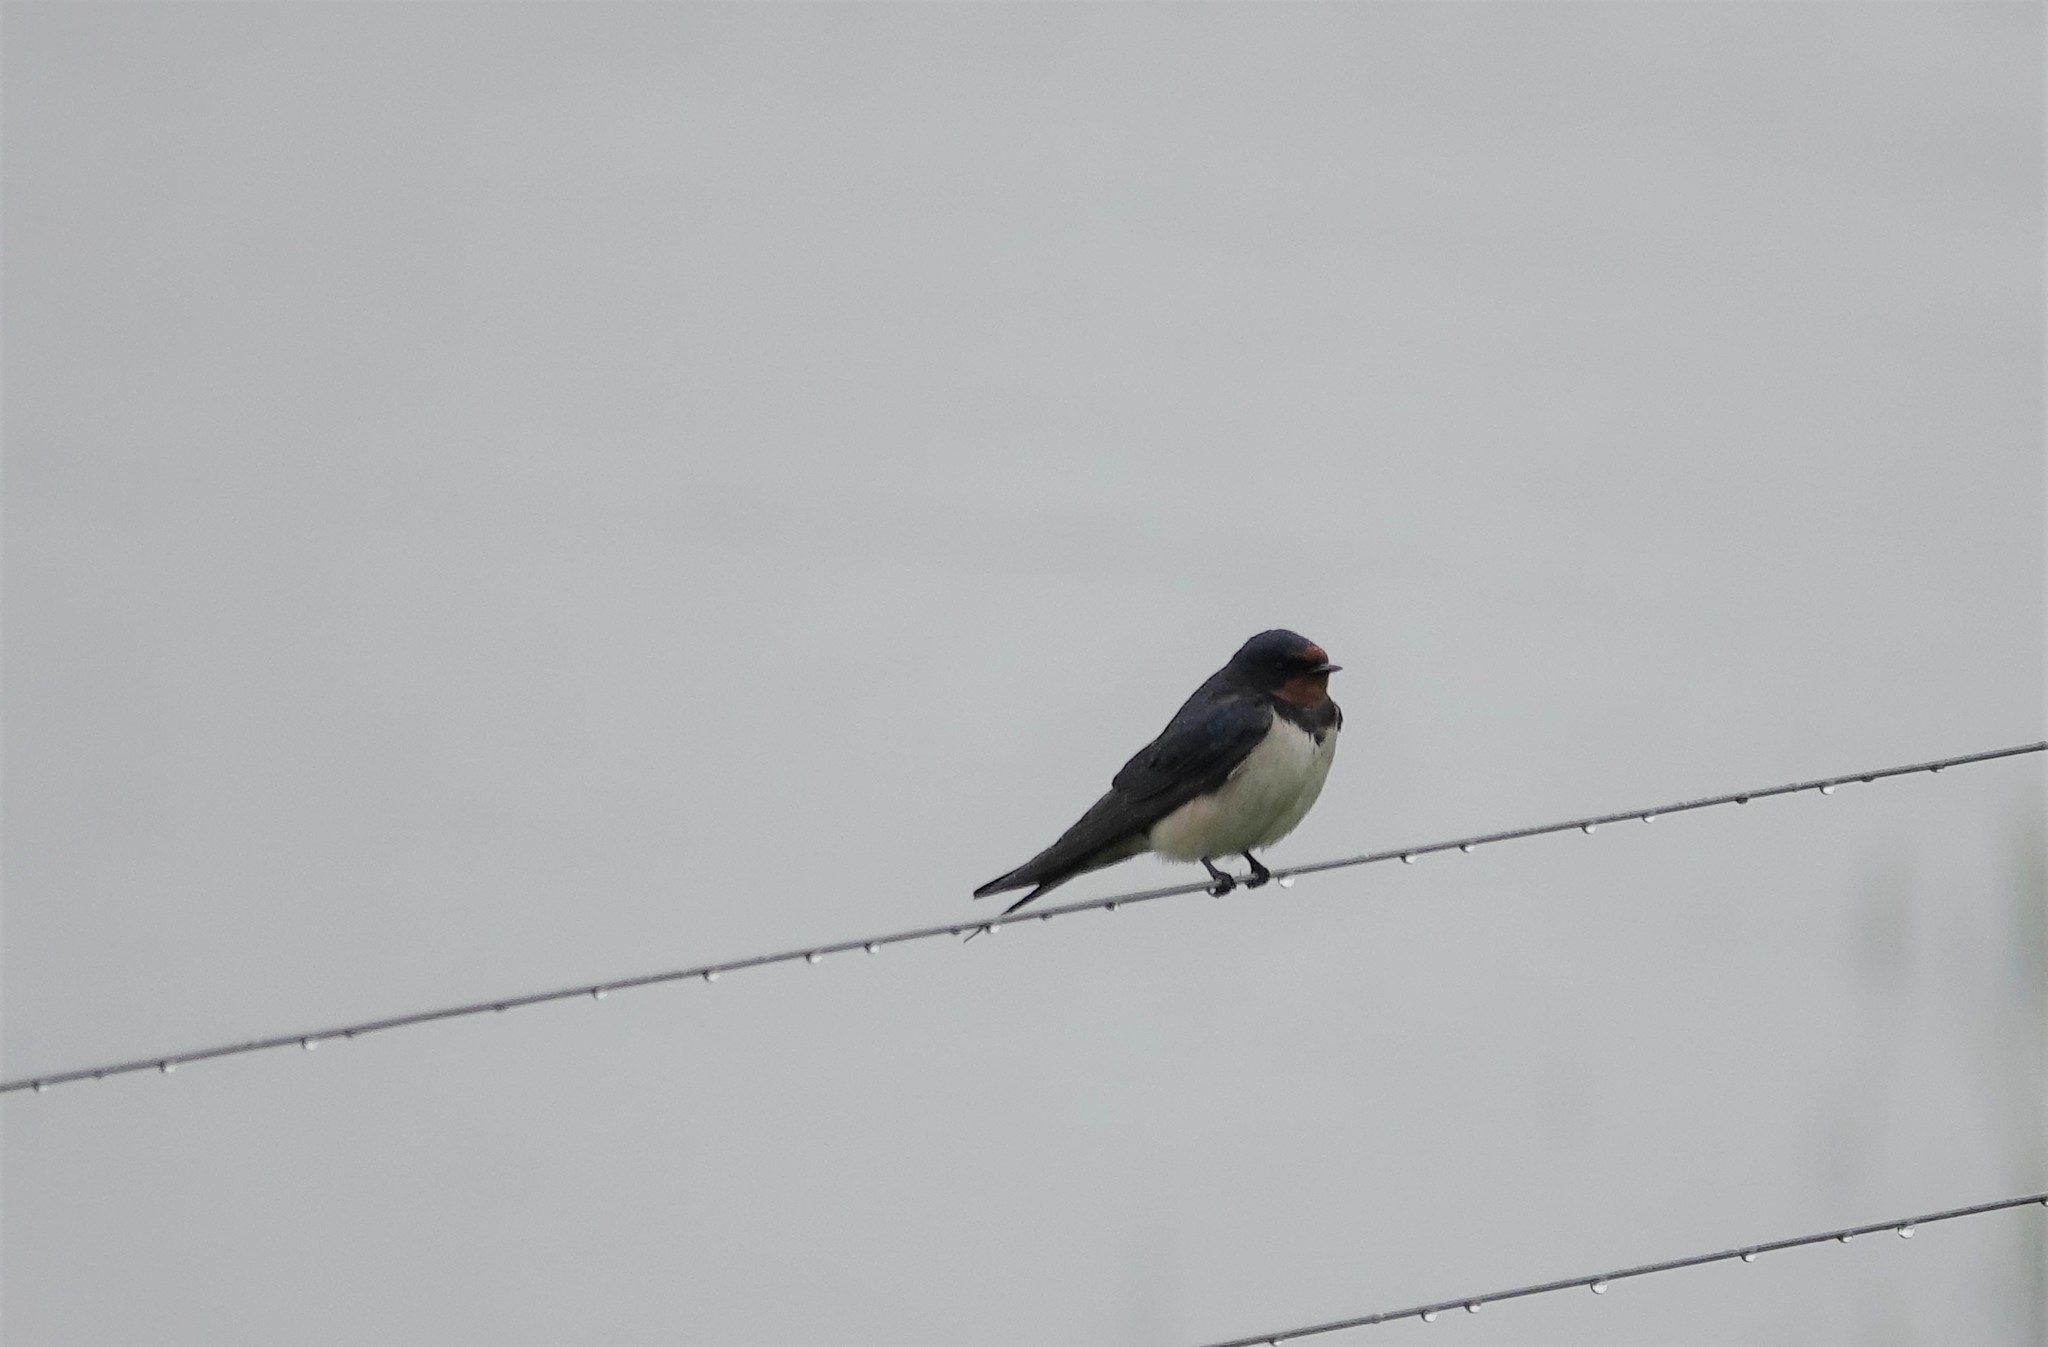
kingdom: Animalia
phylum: Chordata
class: Aves
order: Passeriformes
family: Hirundinidae
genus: Hirundo
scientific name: Hirundo rustica
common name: Barn swallow
